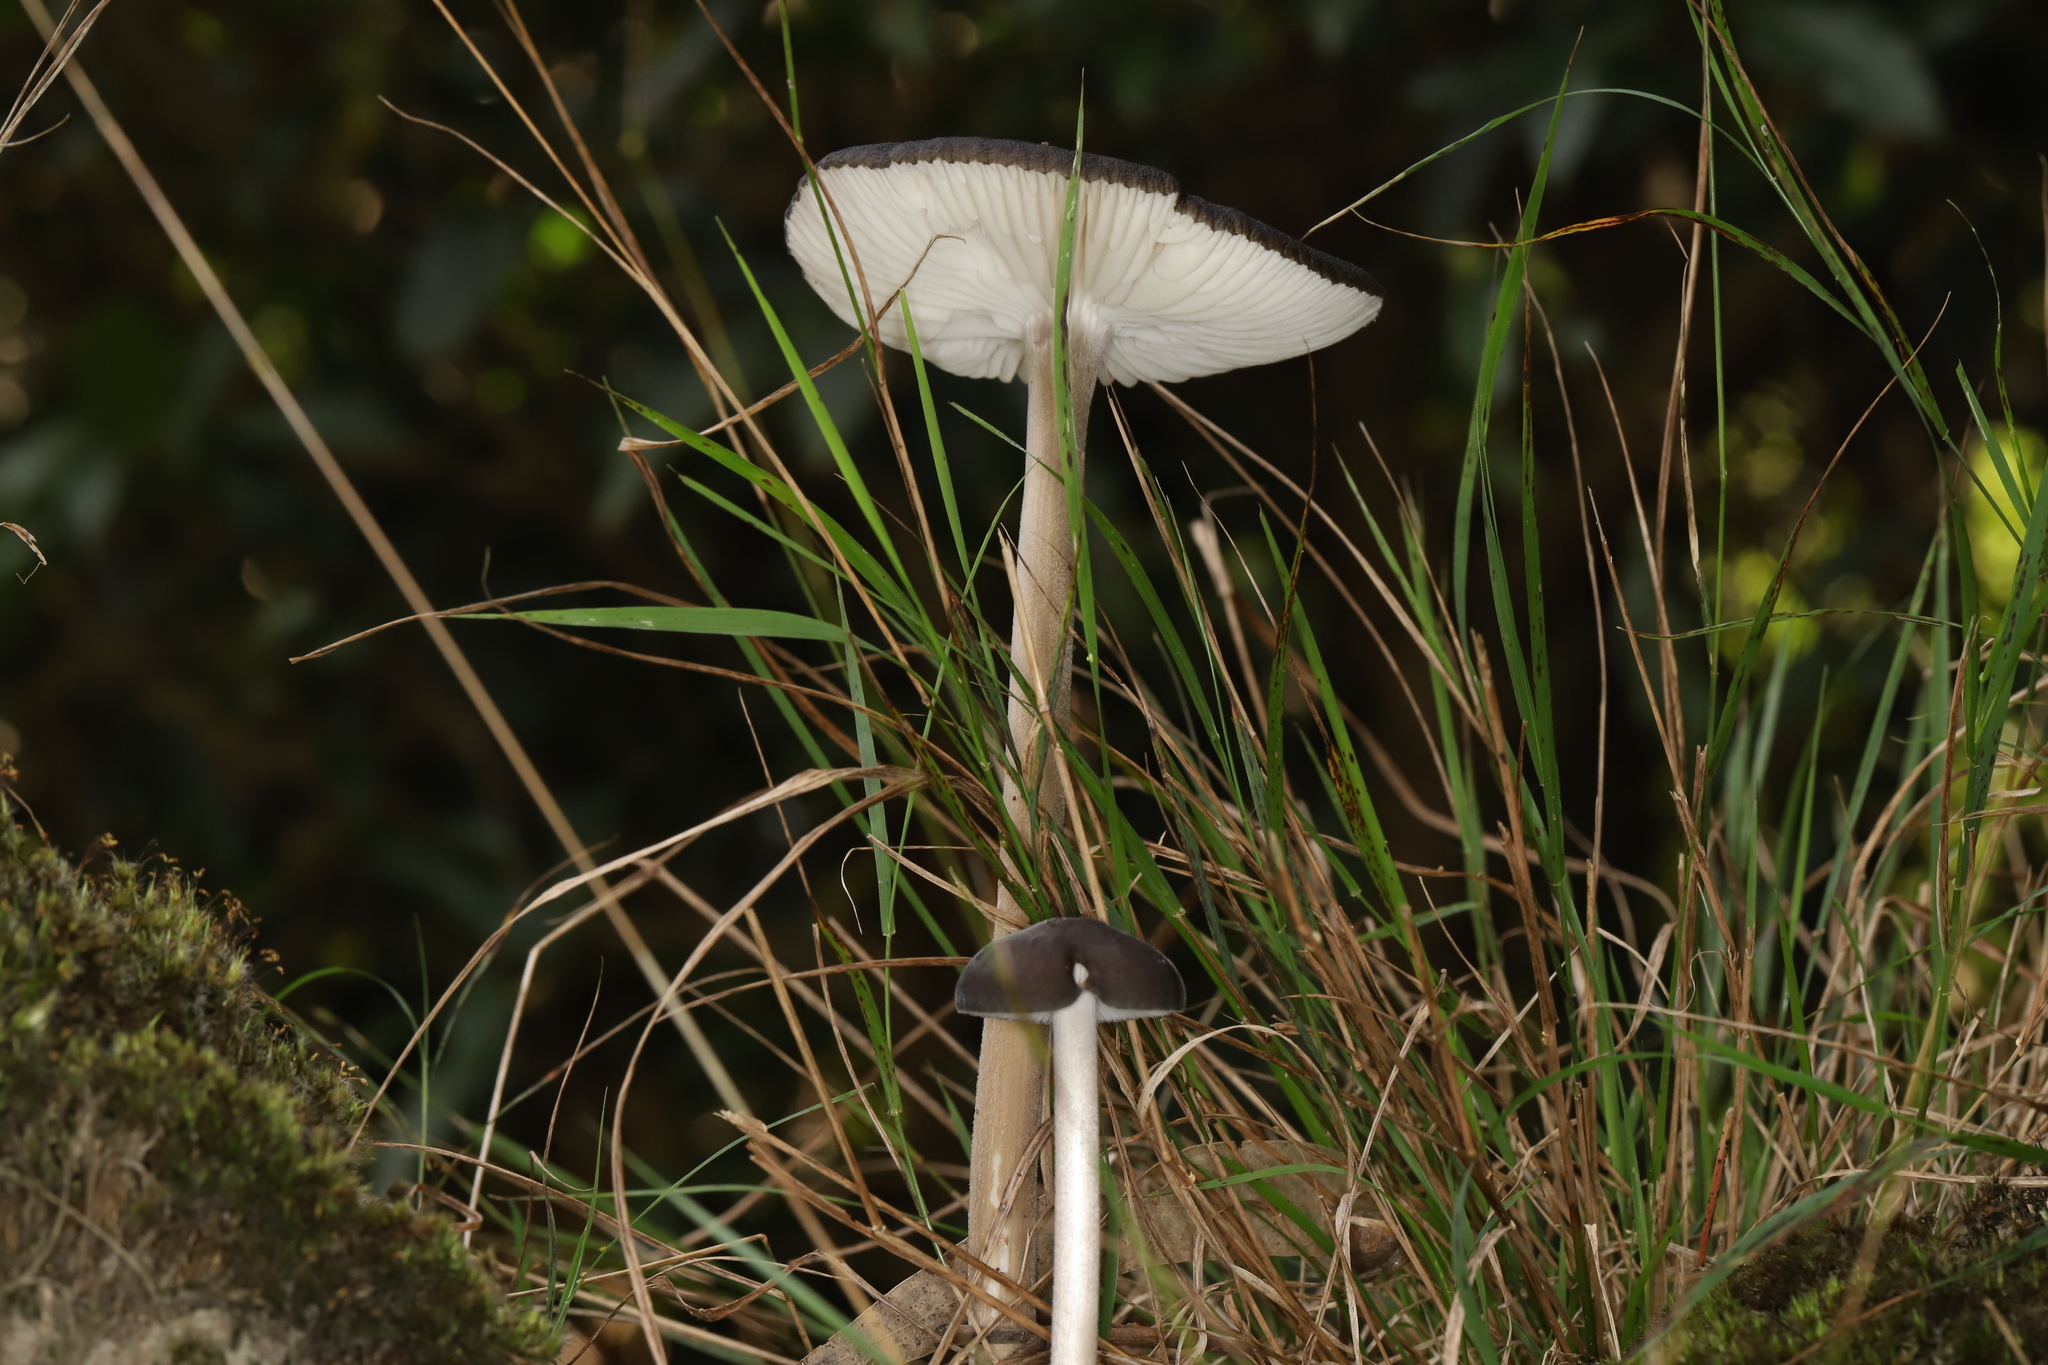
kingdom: Fungi
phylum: Basidiomycota
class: Agaricomycetes
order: Agaricales
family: Physalacriaceae
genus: Hymenopellis
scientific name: Hymenopellis gigaspora
